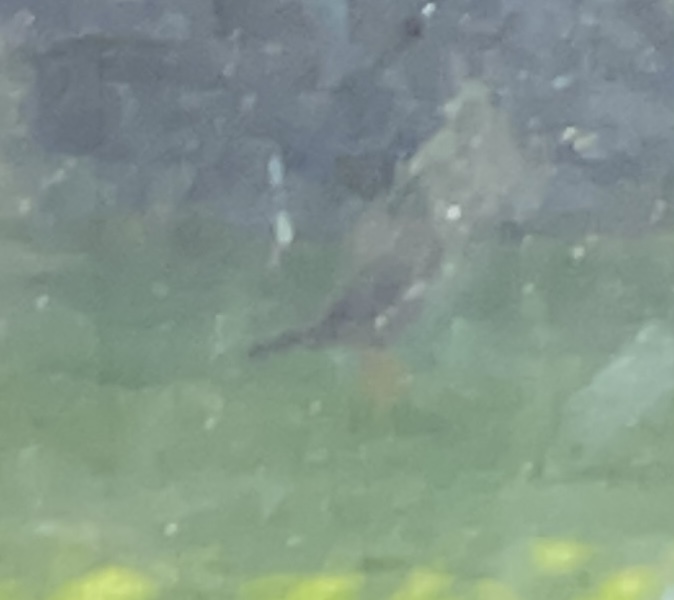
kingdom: Animalia
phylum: Chordata
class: Aves
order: Passeriformes
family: Sturnidae
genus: Acridotheres
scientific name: Acridotheres tristis
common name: Common myna
